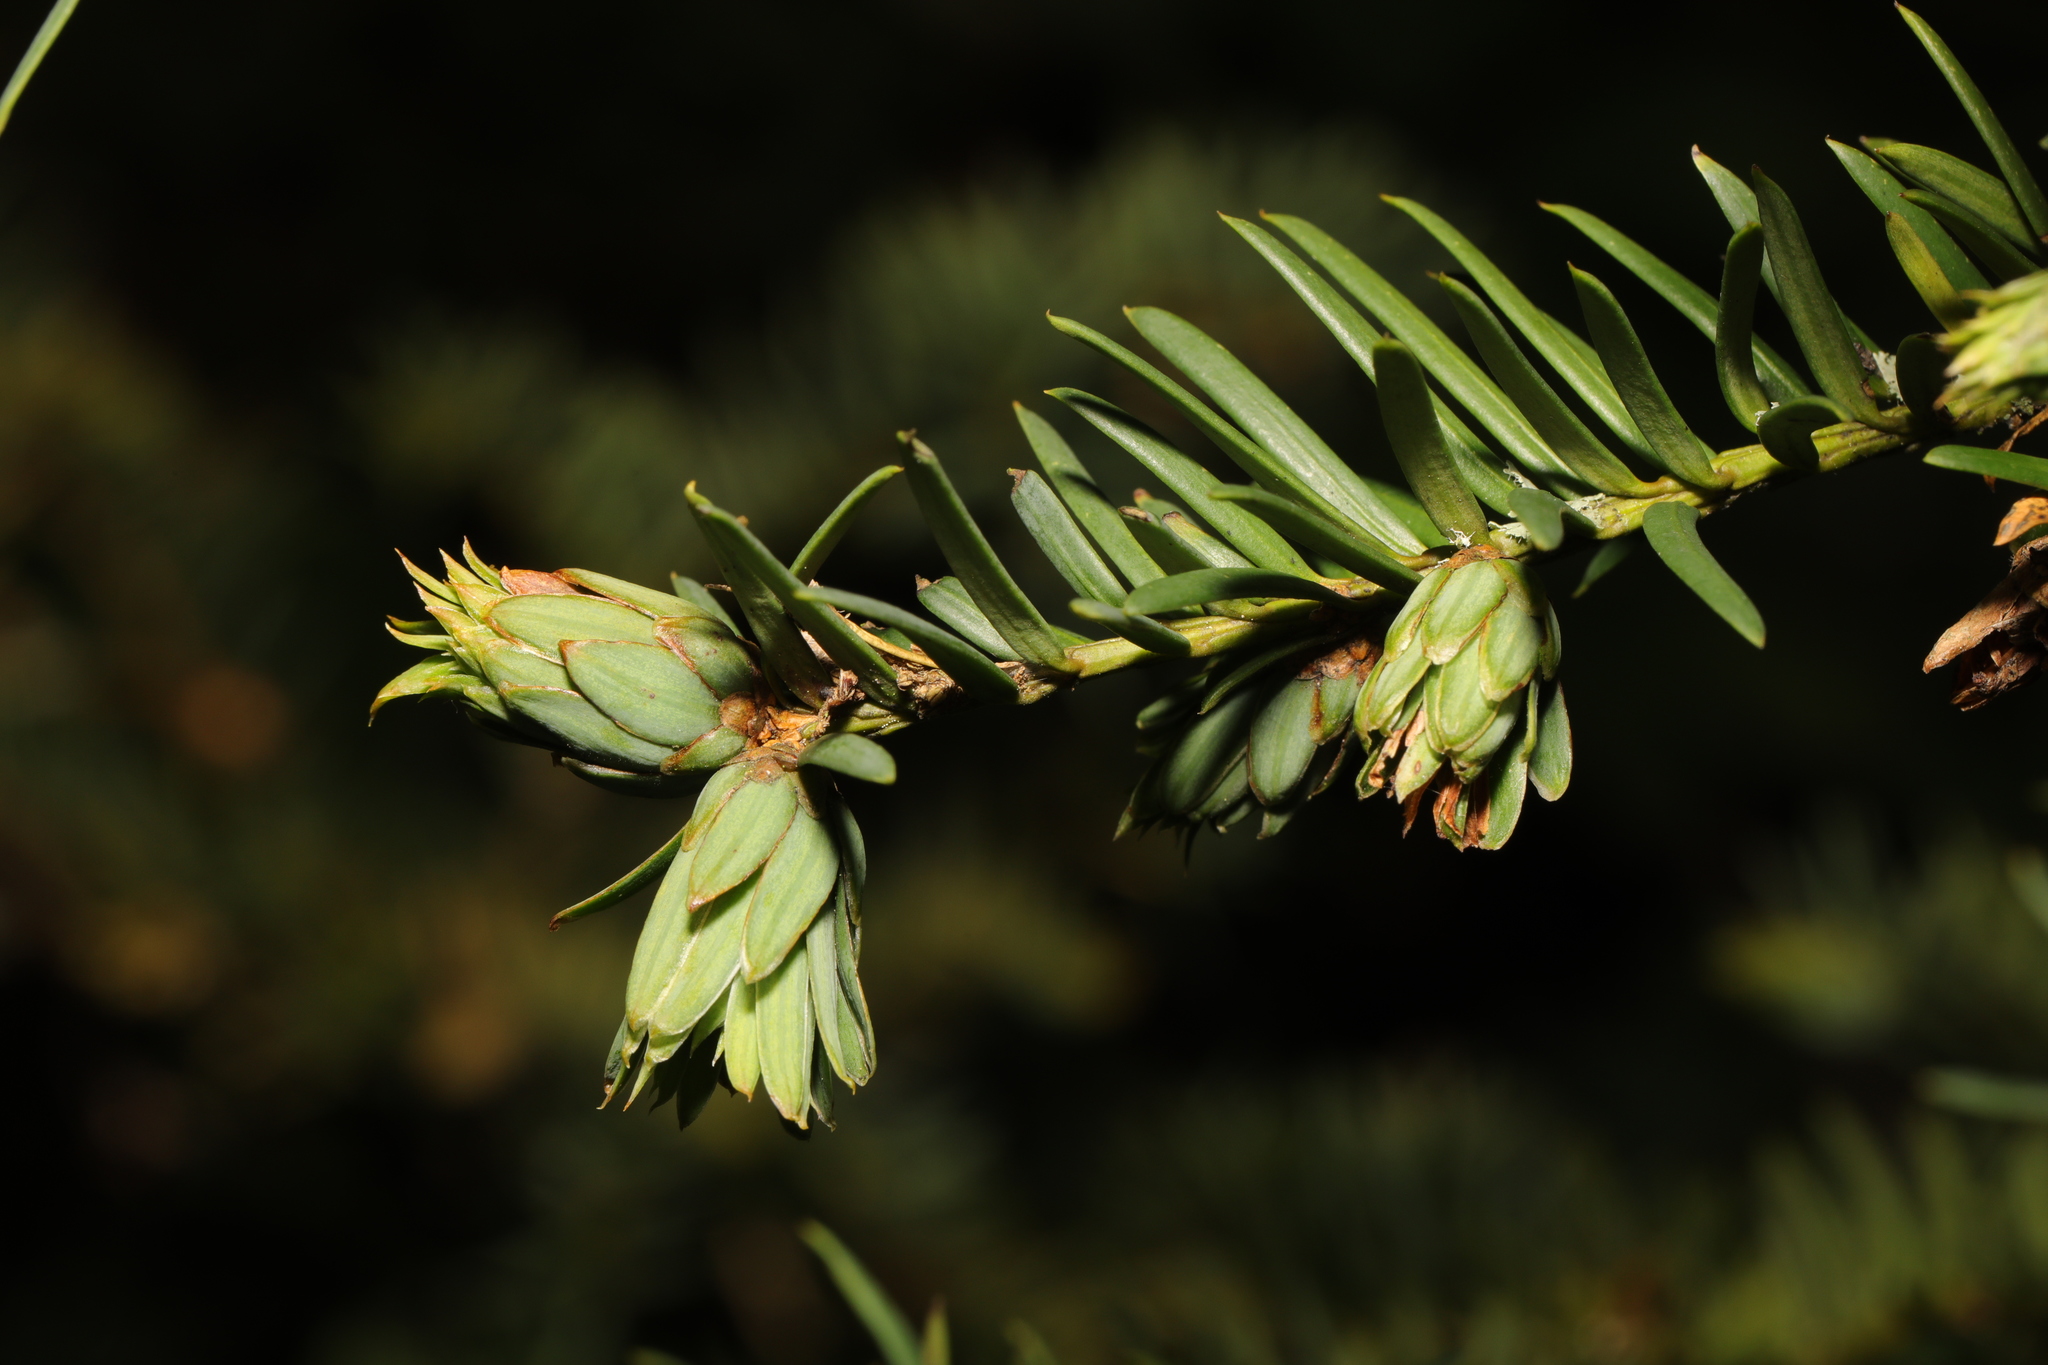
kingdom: Animalia
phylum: Arthropoda
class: Insecta
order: Diptera
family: Cecidomyiidae
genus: Taxomyia
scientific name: Taxomyia taxi
